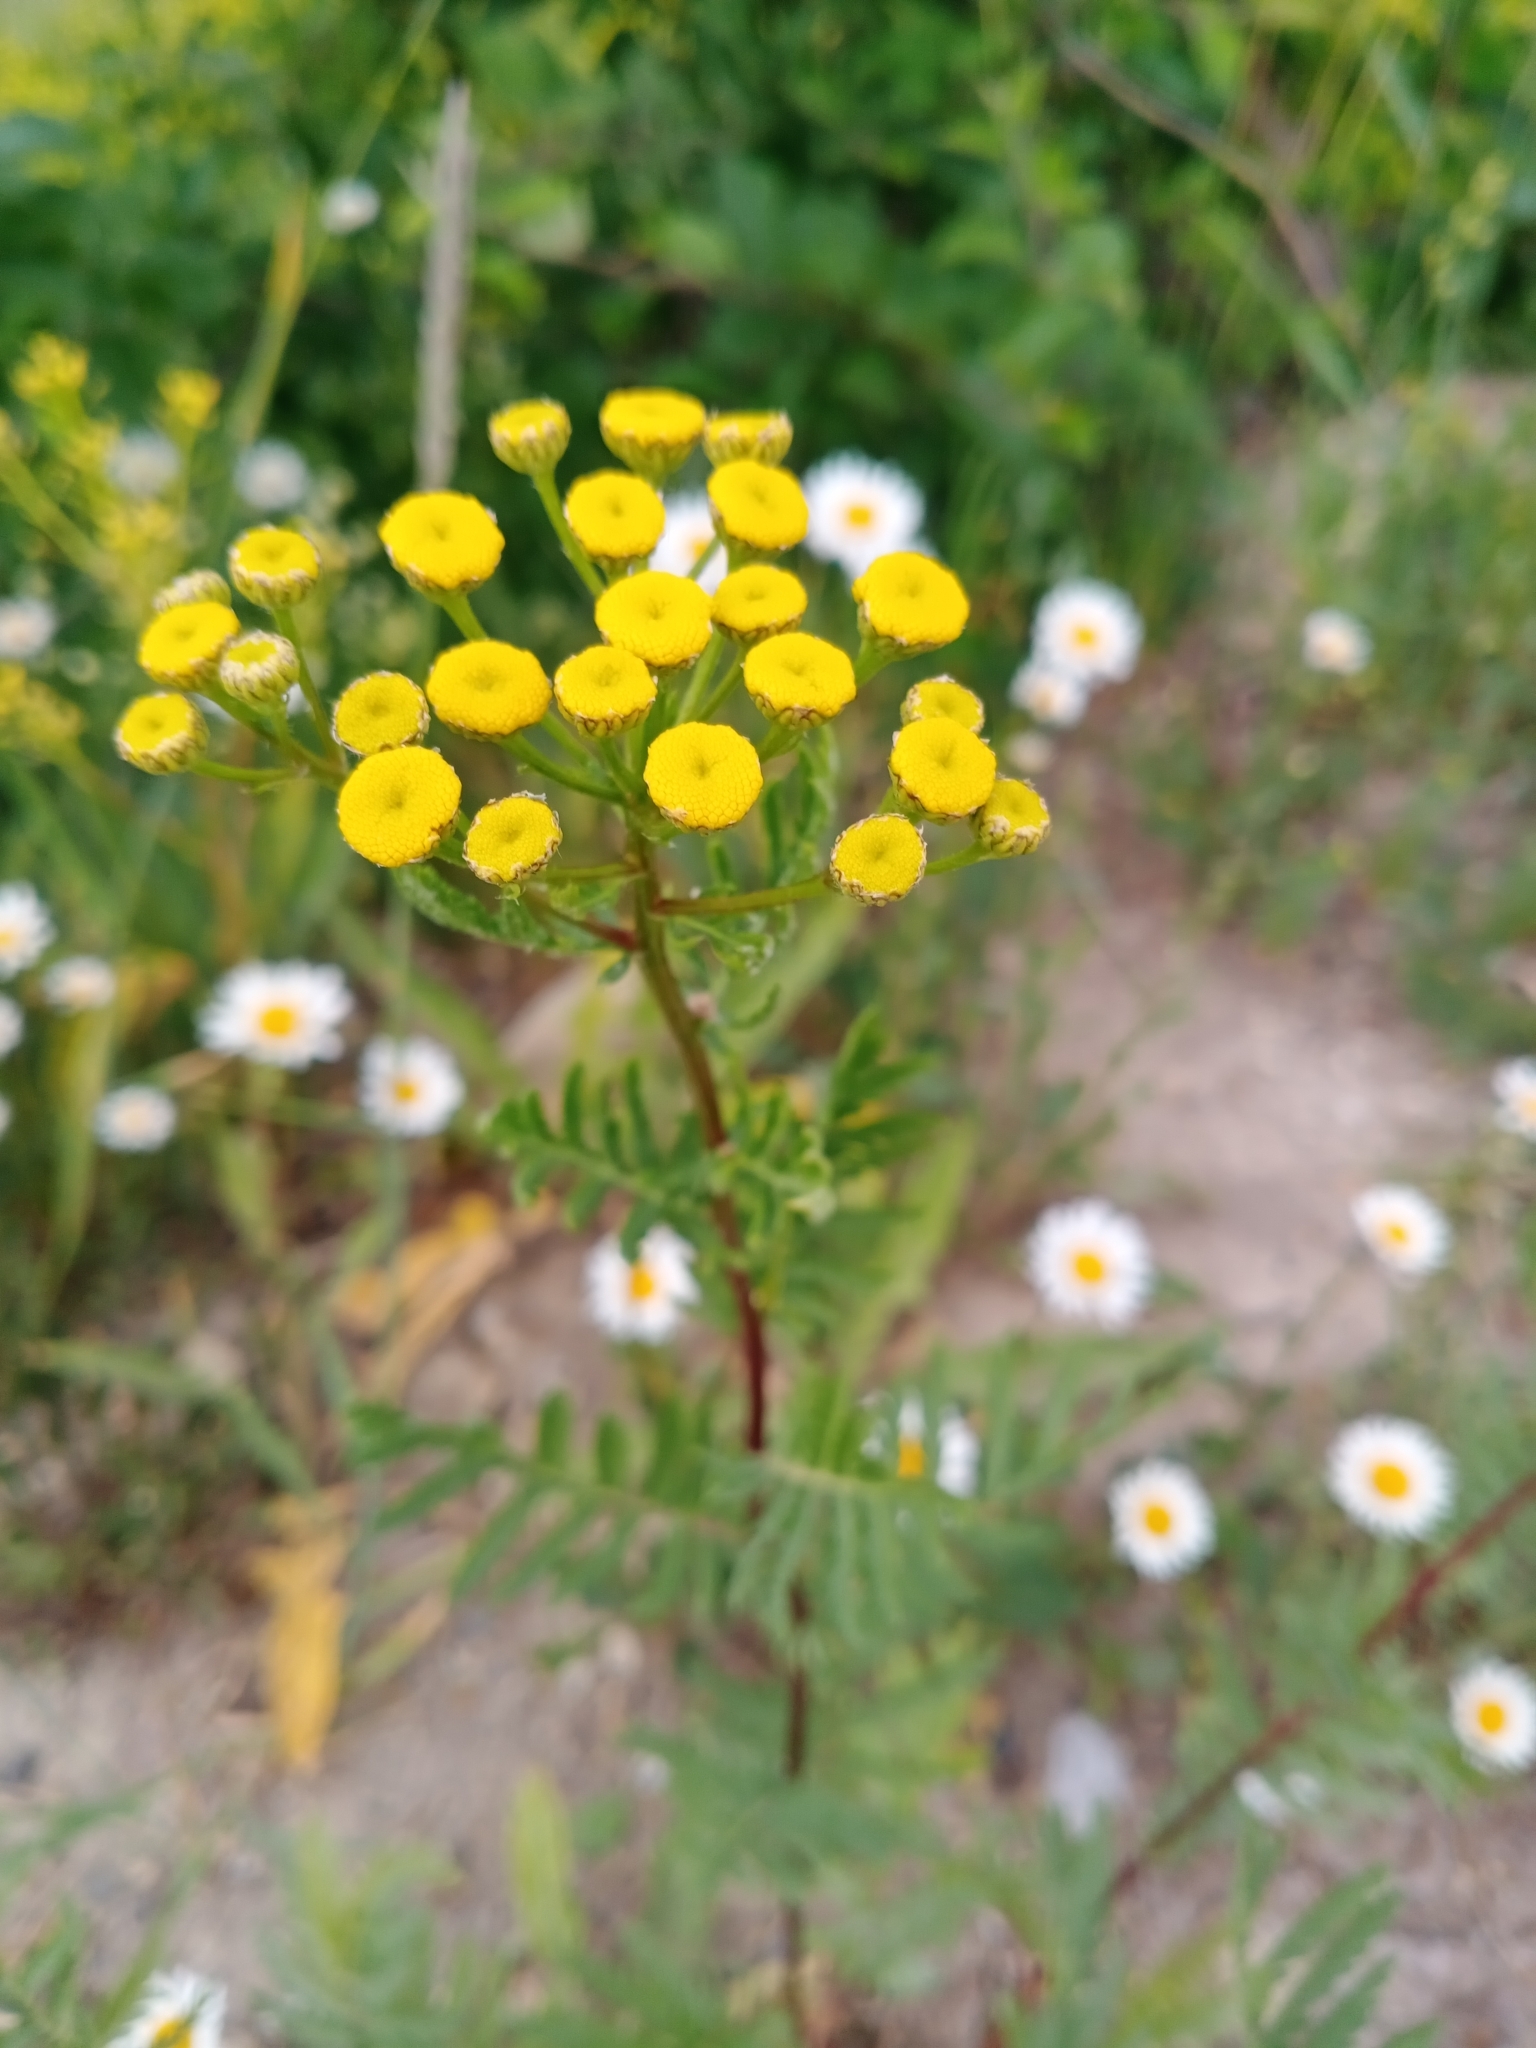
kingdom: Plantae
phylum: Tracheophyta
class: Magnoliopsida
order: Asterales
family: Asteraceae
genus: Tanacetum
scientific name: Tanacetum vulgare
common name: Common tansy
